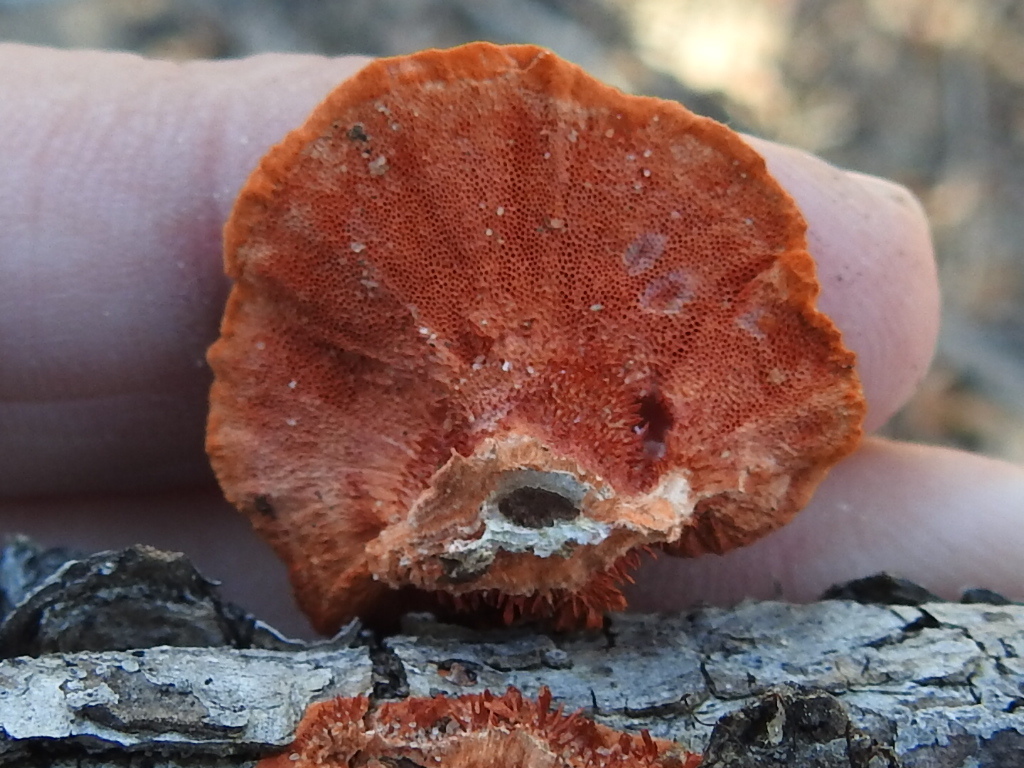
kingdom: Fungi
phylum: Basidiomycota
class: Agaricomycetes
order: Polyporales
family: Polyporaceae
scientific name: Polyporaceae
